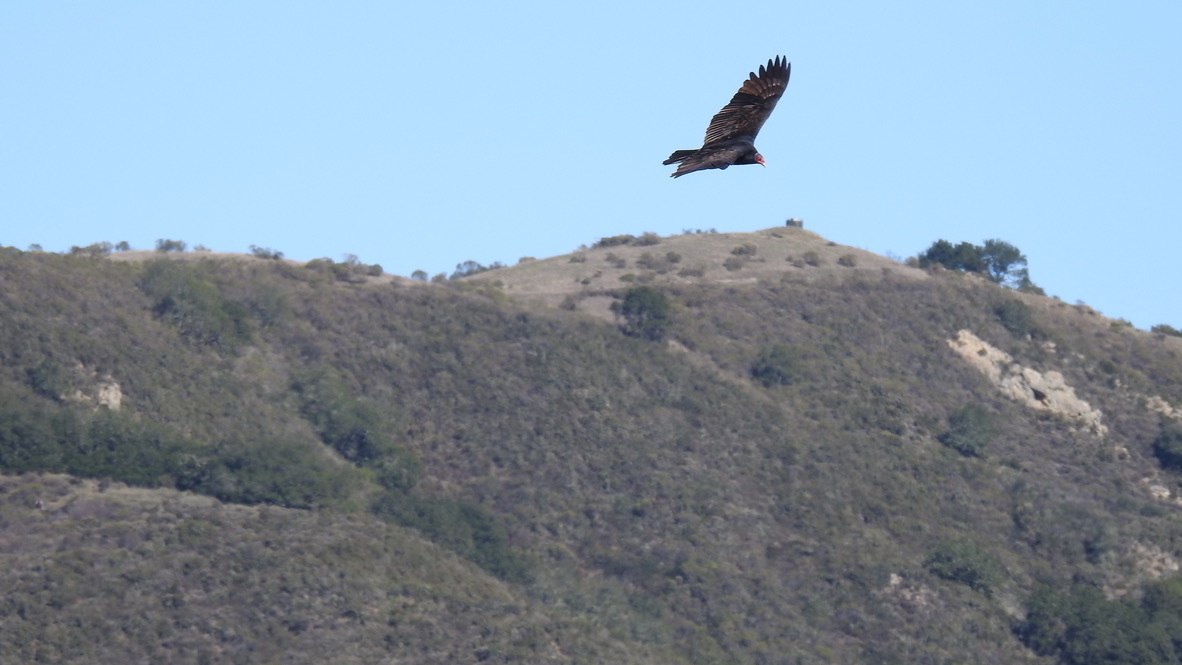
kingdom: Animalia
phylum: Chordata
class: Aves
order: Accipitriformes
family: Cathartidae
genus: Cathartes
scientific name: Cathartes aura
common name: Turkey vulture
